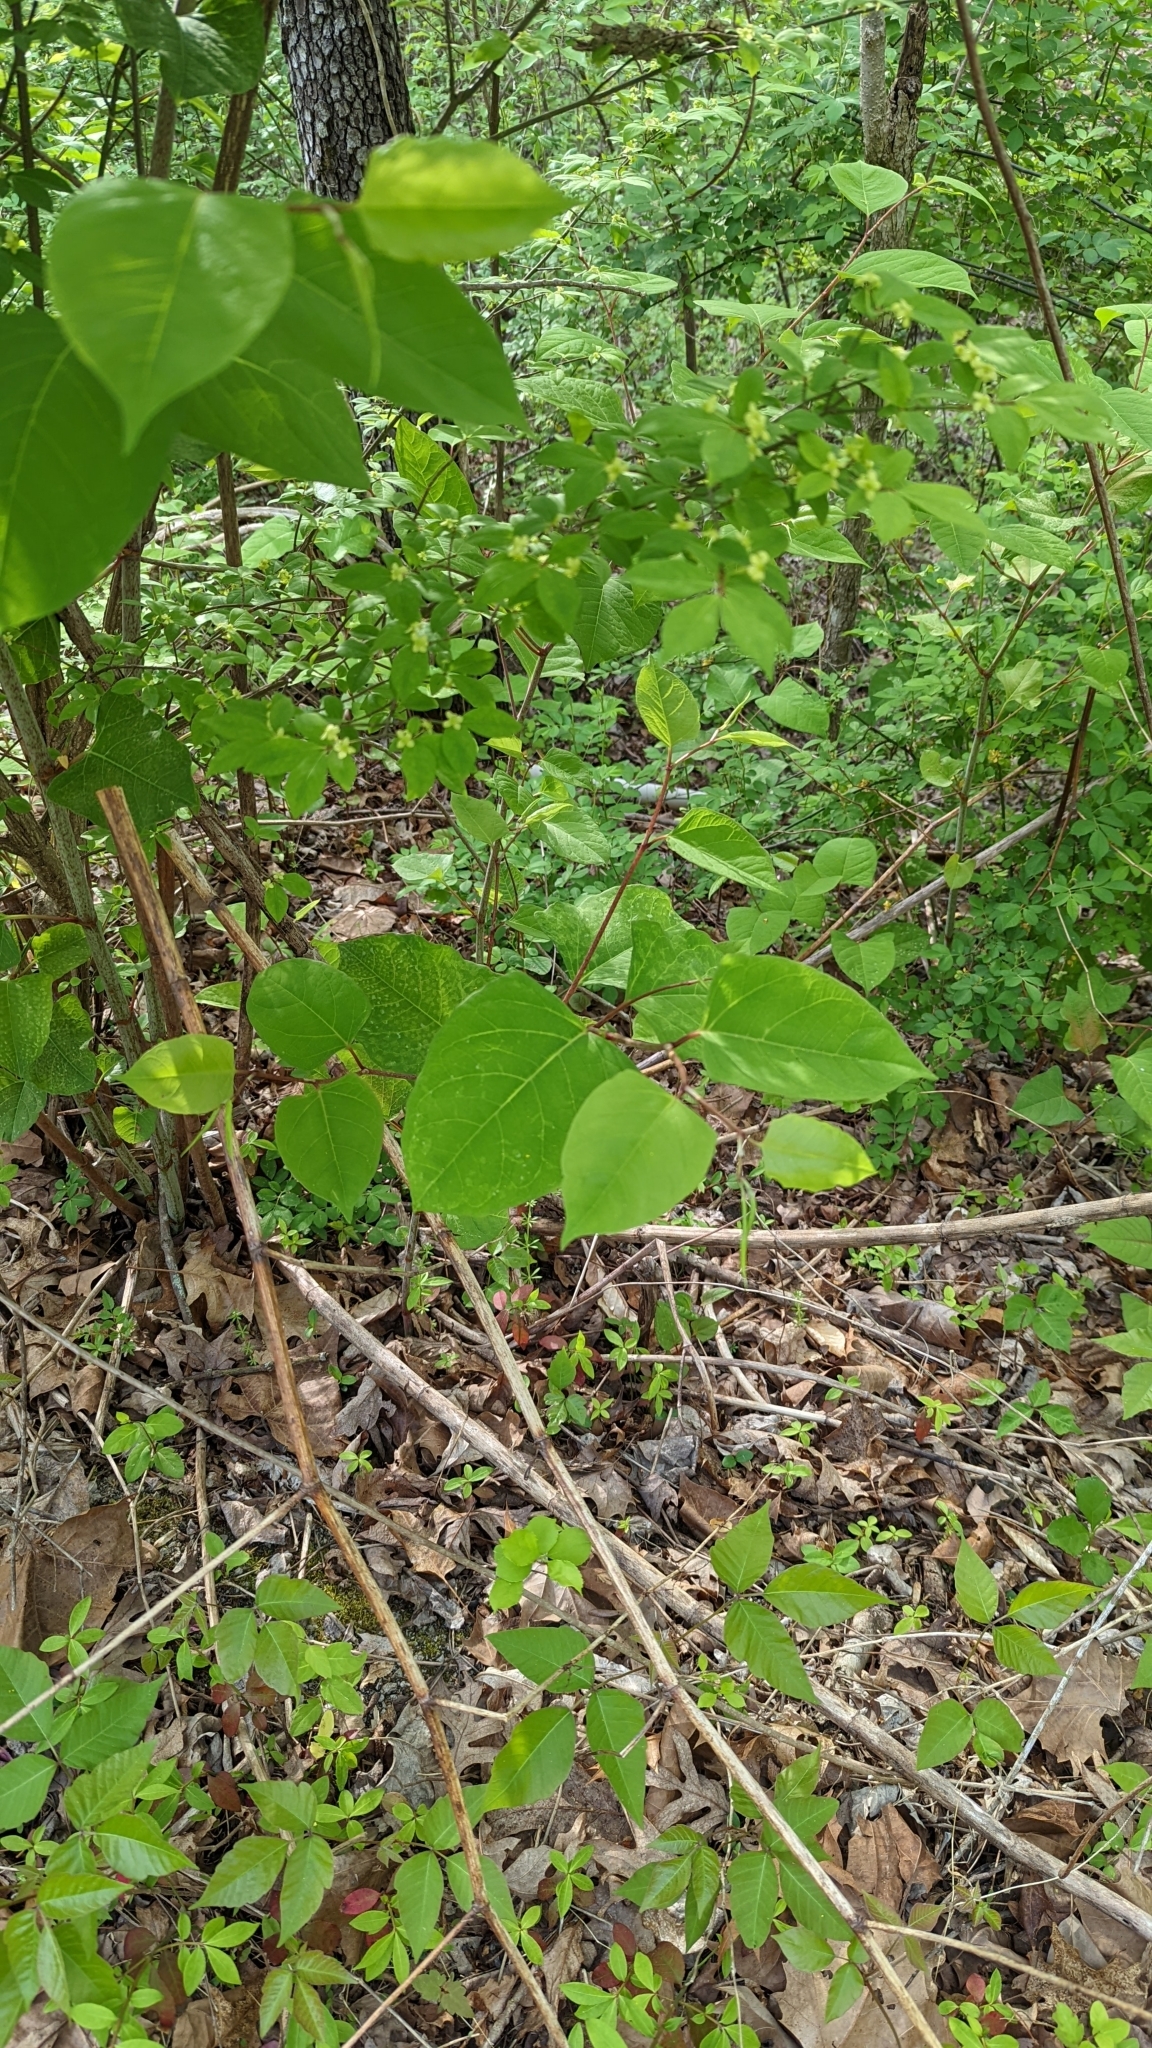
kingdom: Plantae
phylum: Tracheophyta
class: Magnoliopsida
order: Caryophyllales
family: Polygonaceae
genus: Reynoutria
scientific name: Reynoutria japonica
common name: Japanese knotweed
